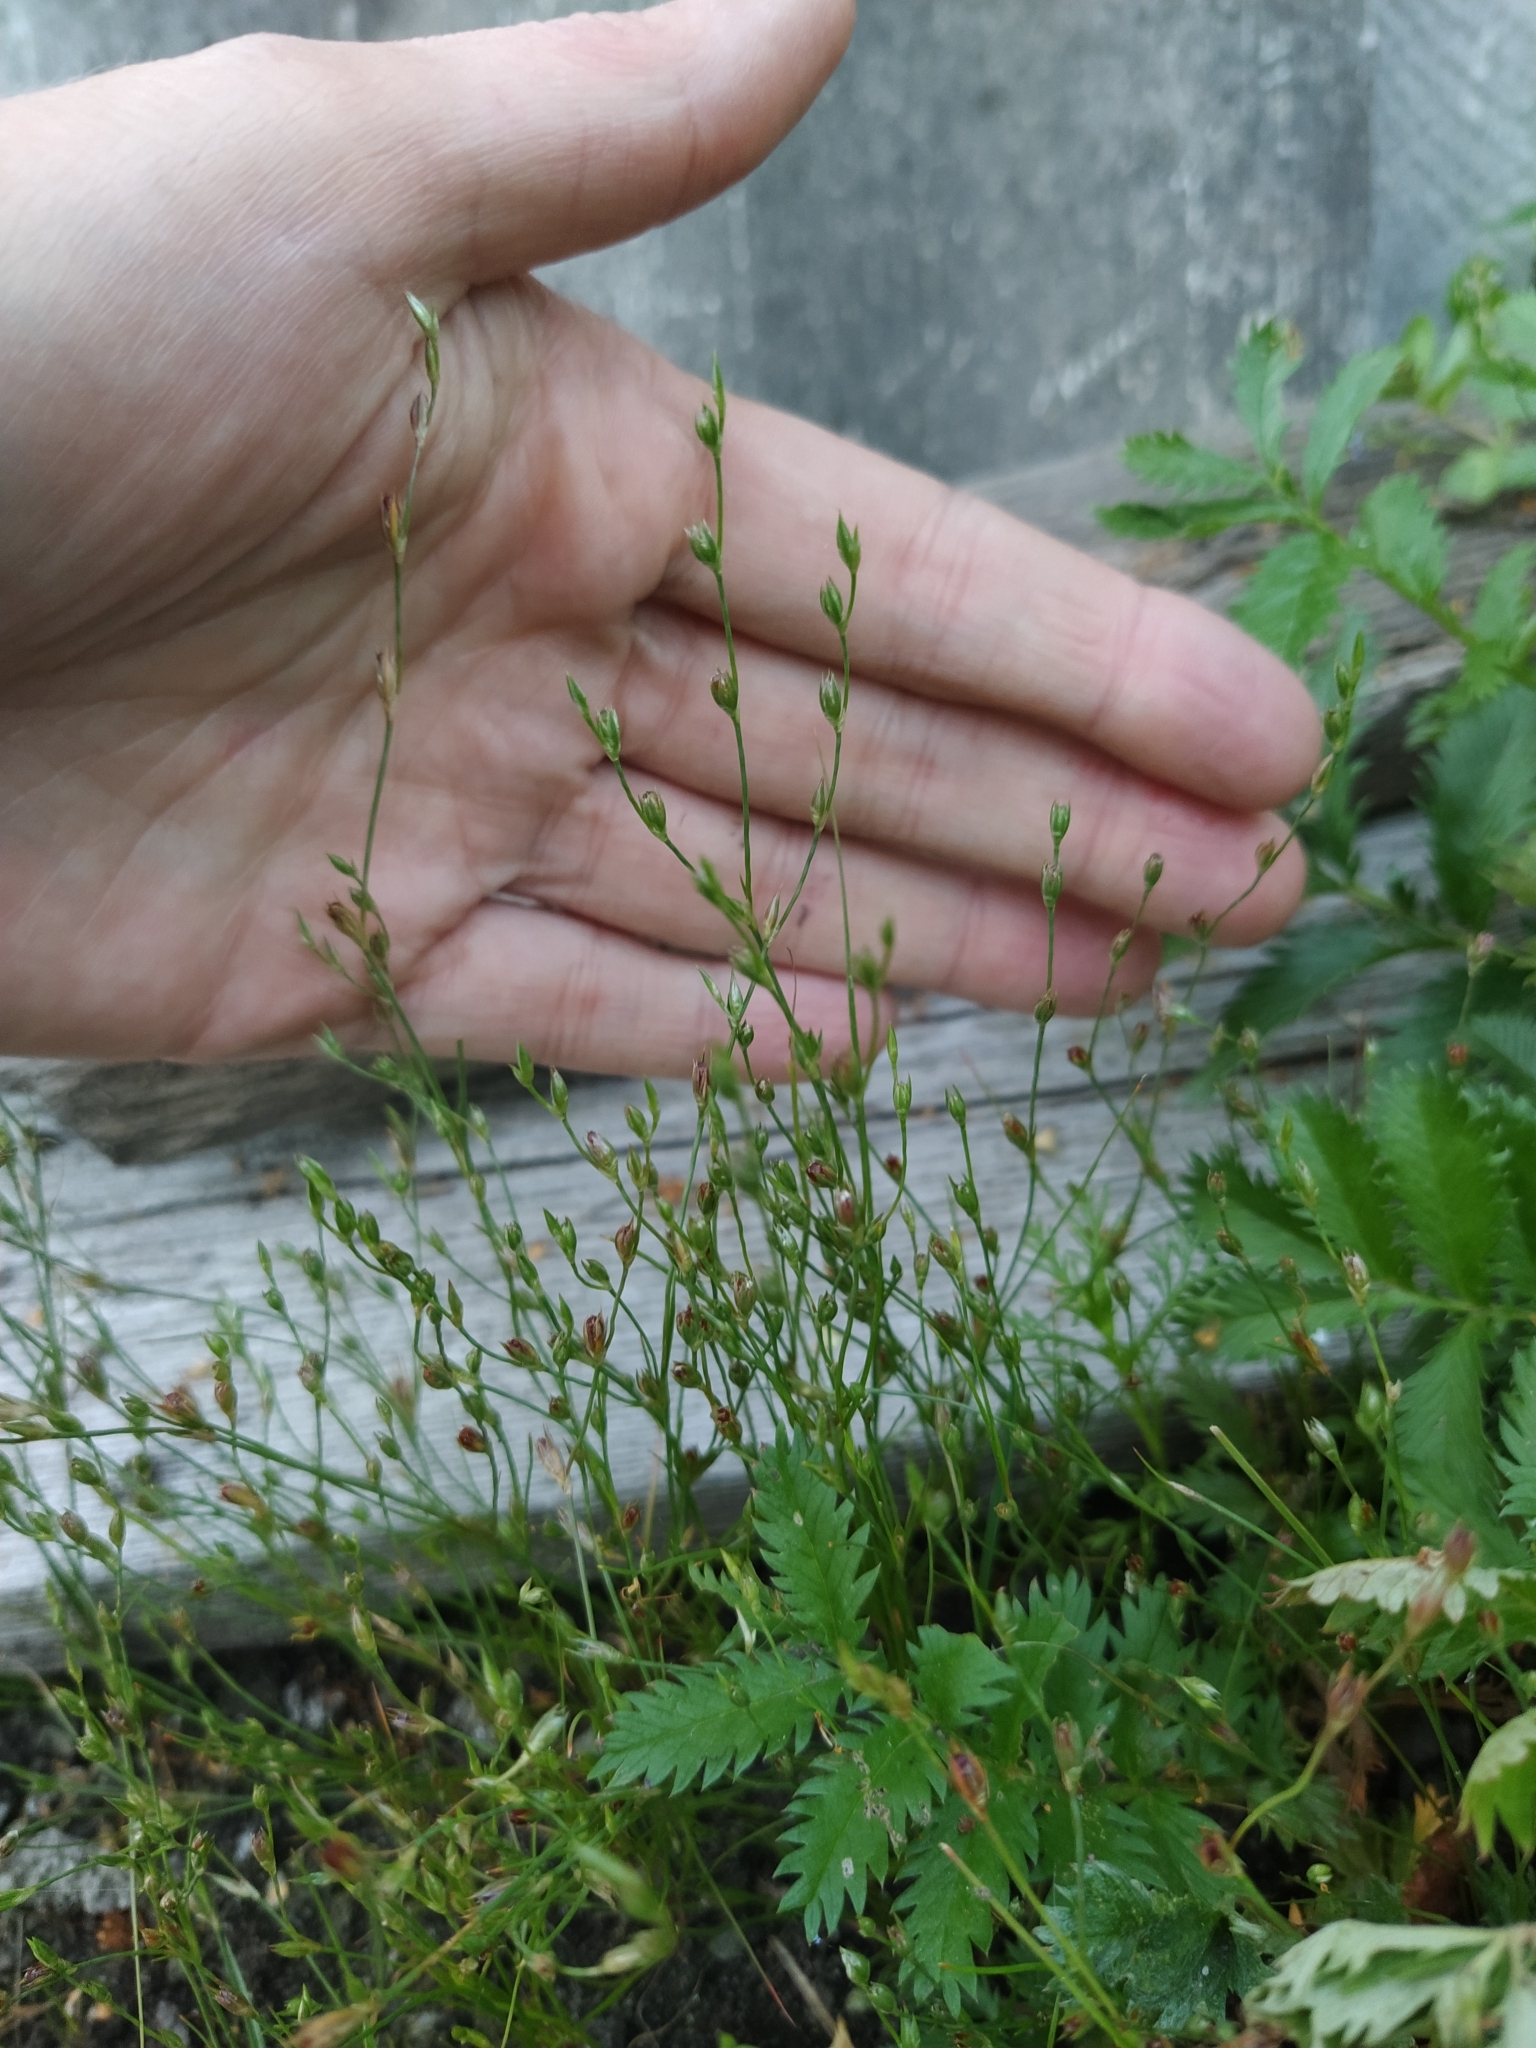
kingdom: Plantae
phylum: Tracheophyta
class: Liliopsida
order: Poales
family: Juncaceae
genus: Juncus
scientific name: Juncus bufonius
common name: Toad rush
